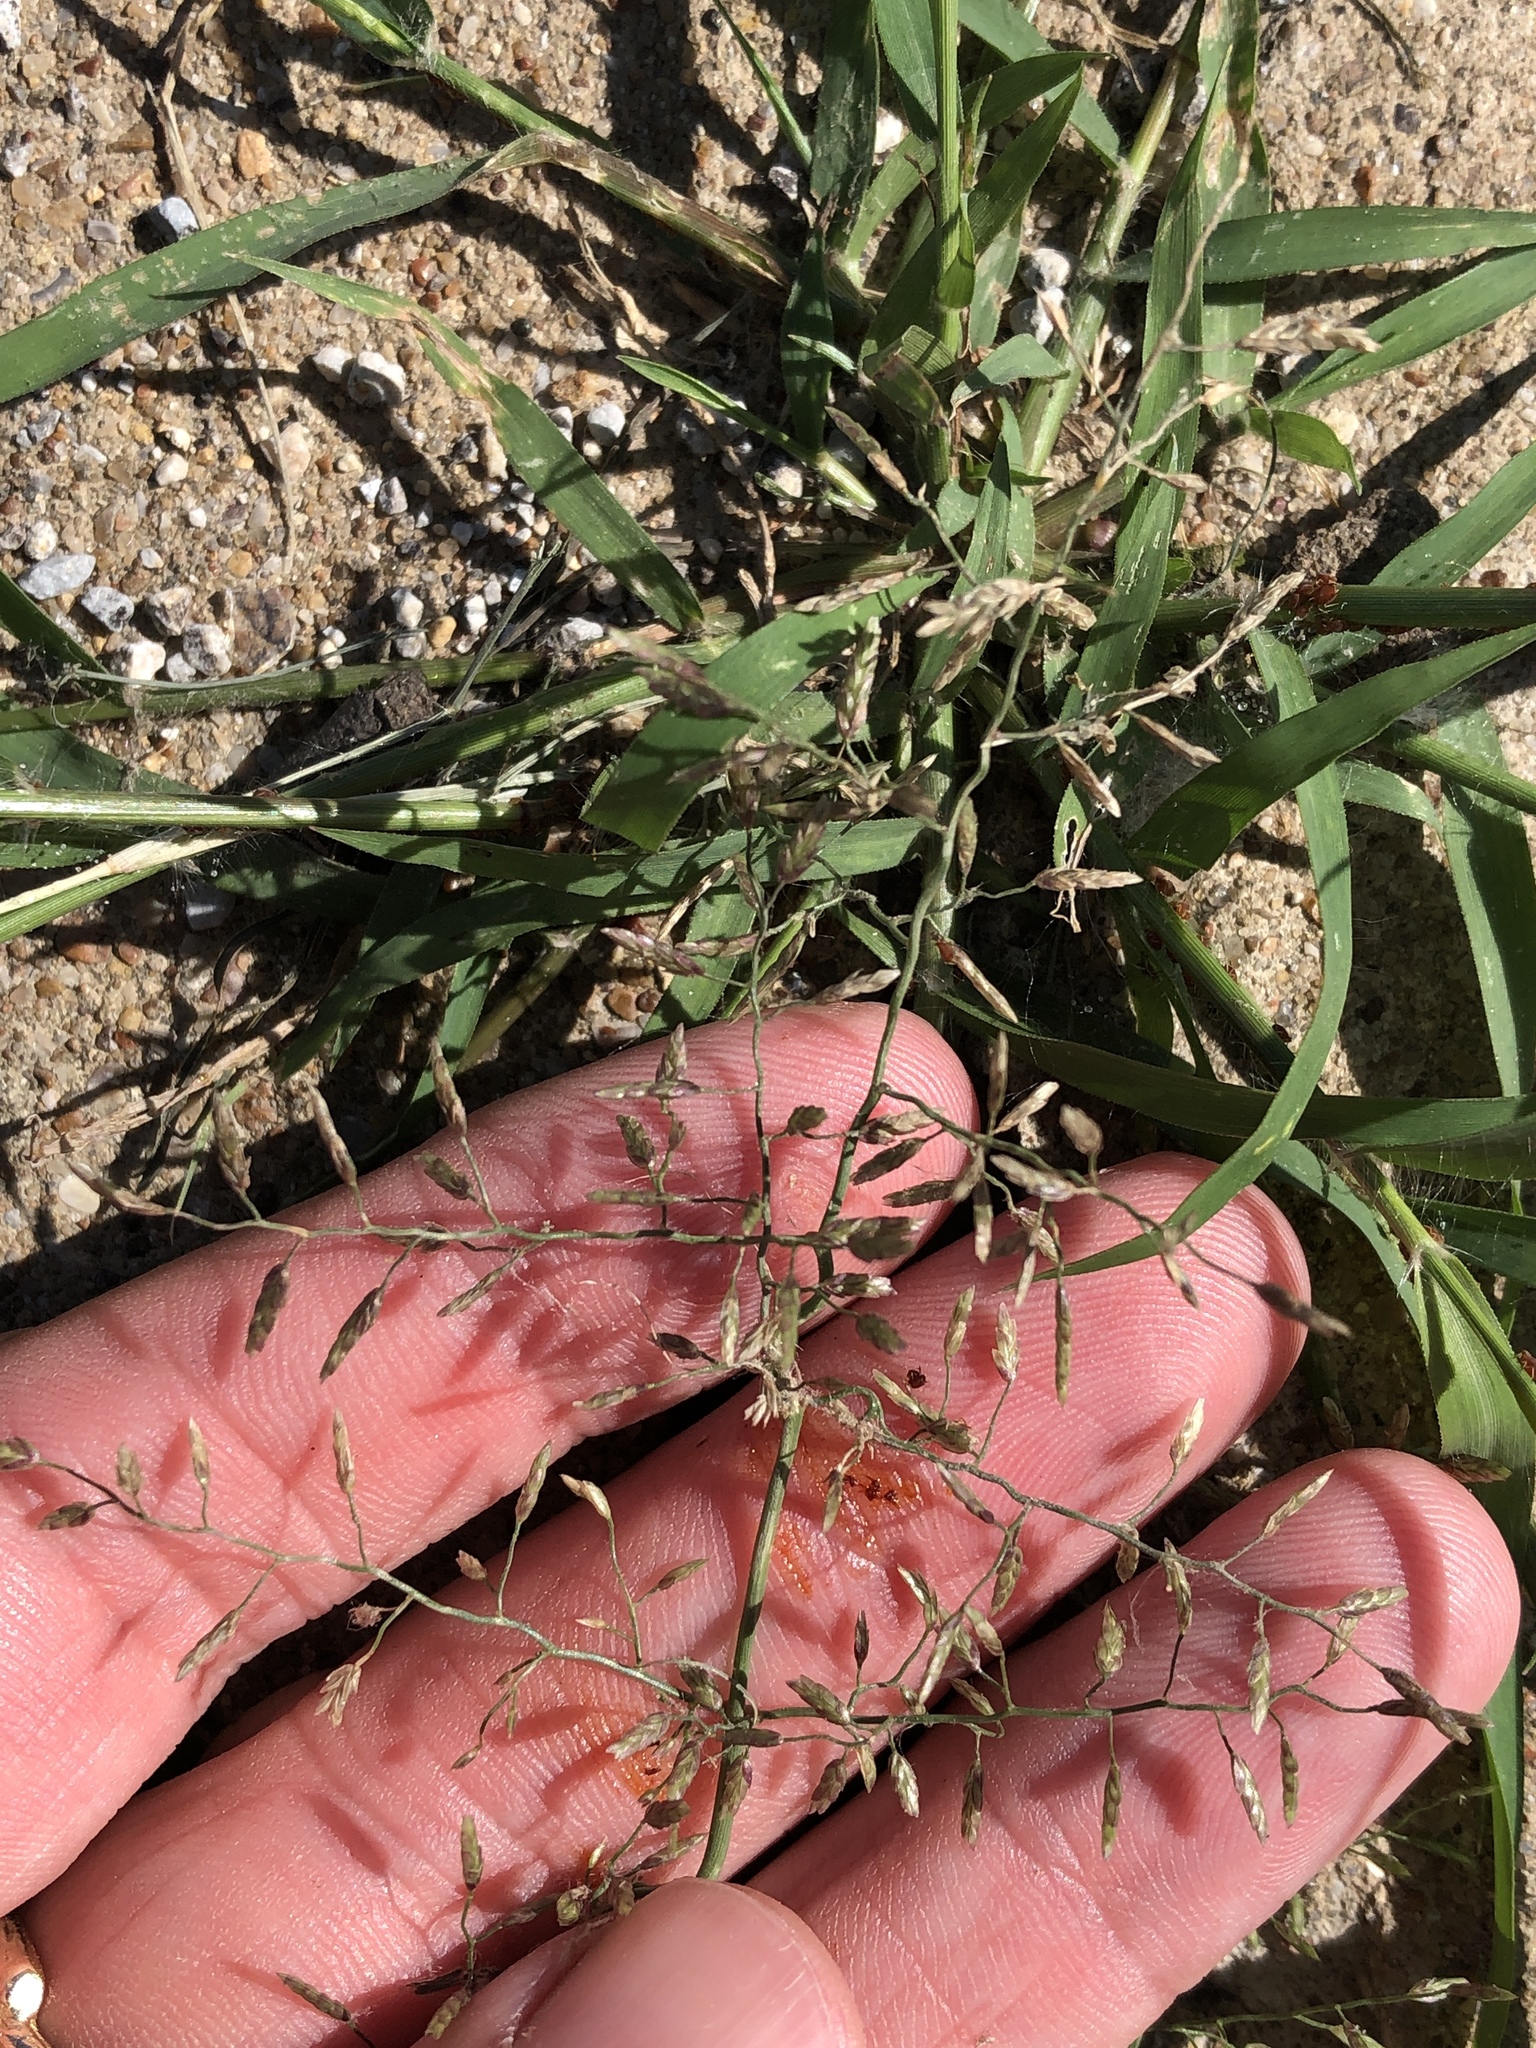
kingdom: Plantae
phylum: Tracheophyta
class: Liliopsida
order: Poales
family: Poaceae
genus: Eragrostis
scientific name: Eragrostis cilianensis
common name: Stinkgrass
